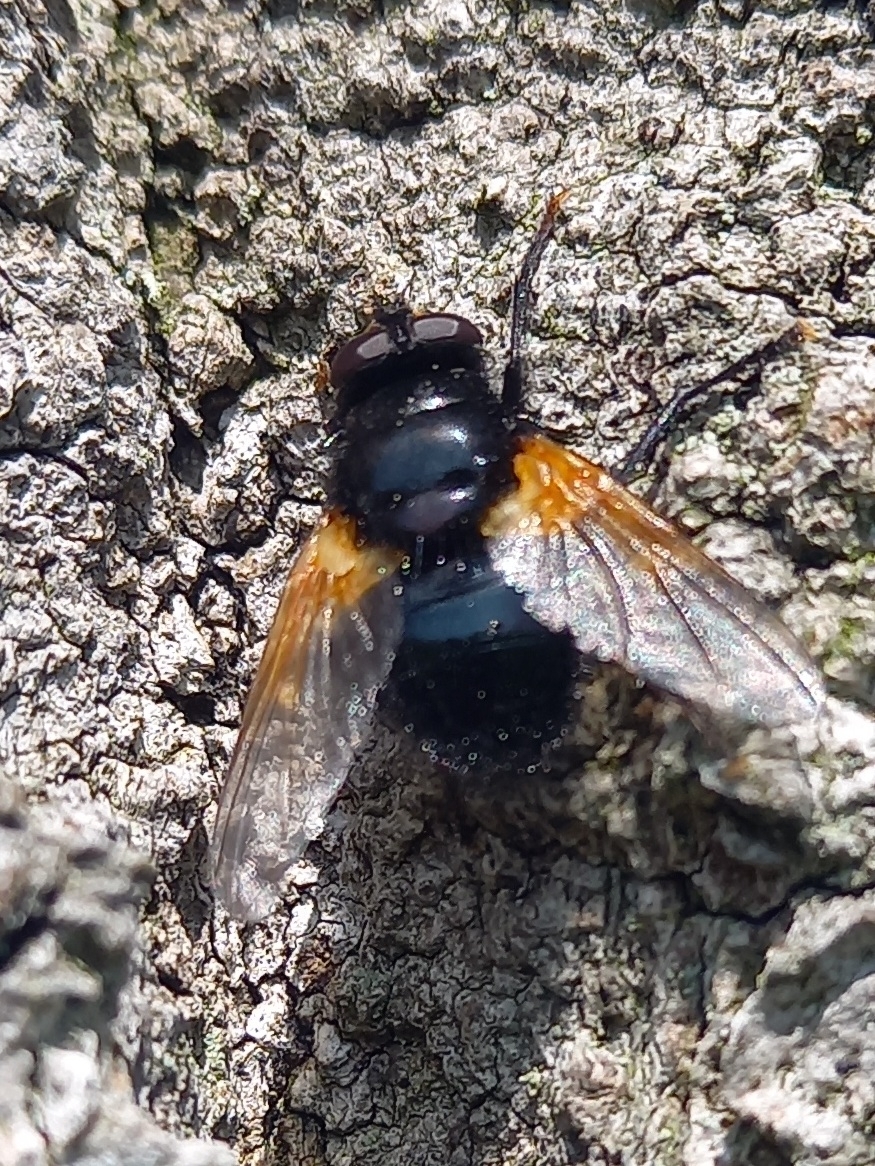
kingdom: Animalia
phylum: Arthropoda
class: Insecta
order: Diptera
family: Muscidae
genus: Mesembrina
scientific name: Mesembrina meridiana
